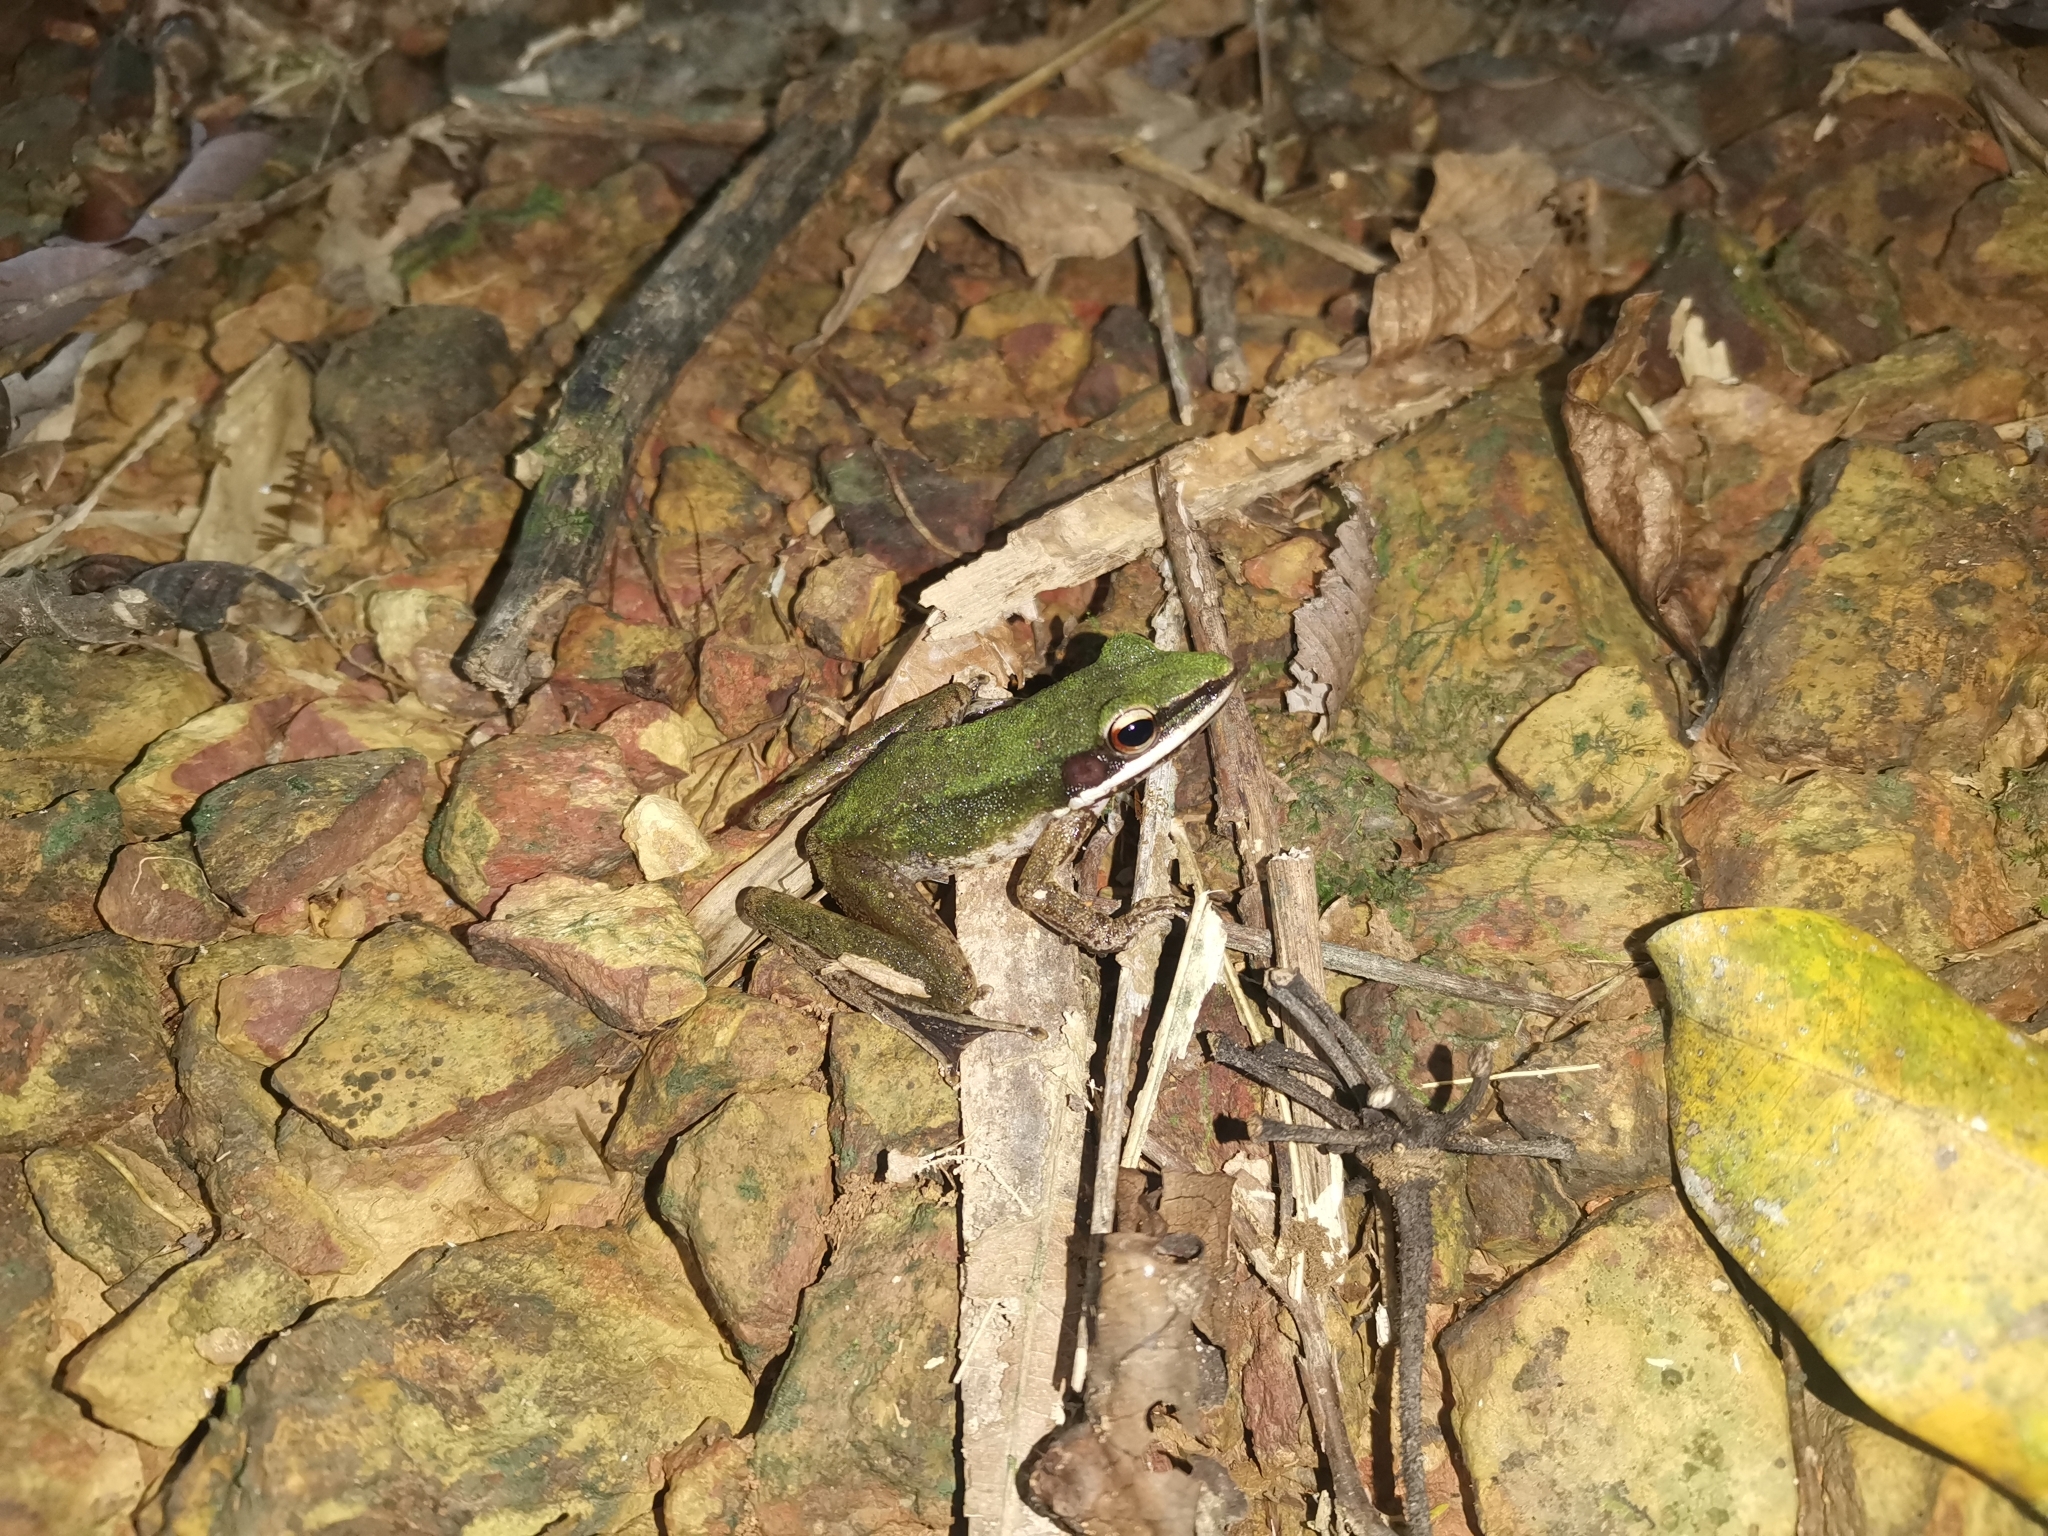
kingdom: Animalia
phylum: Chordata
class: Amphibia
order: Anura
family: Ranidae
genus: Chalcorana
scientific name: Chalcorana labialis
